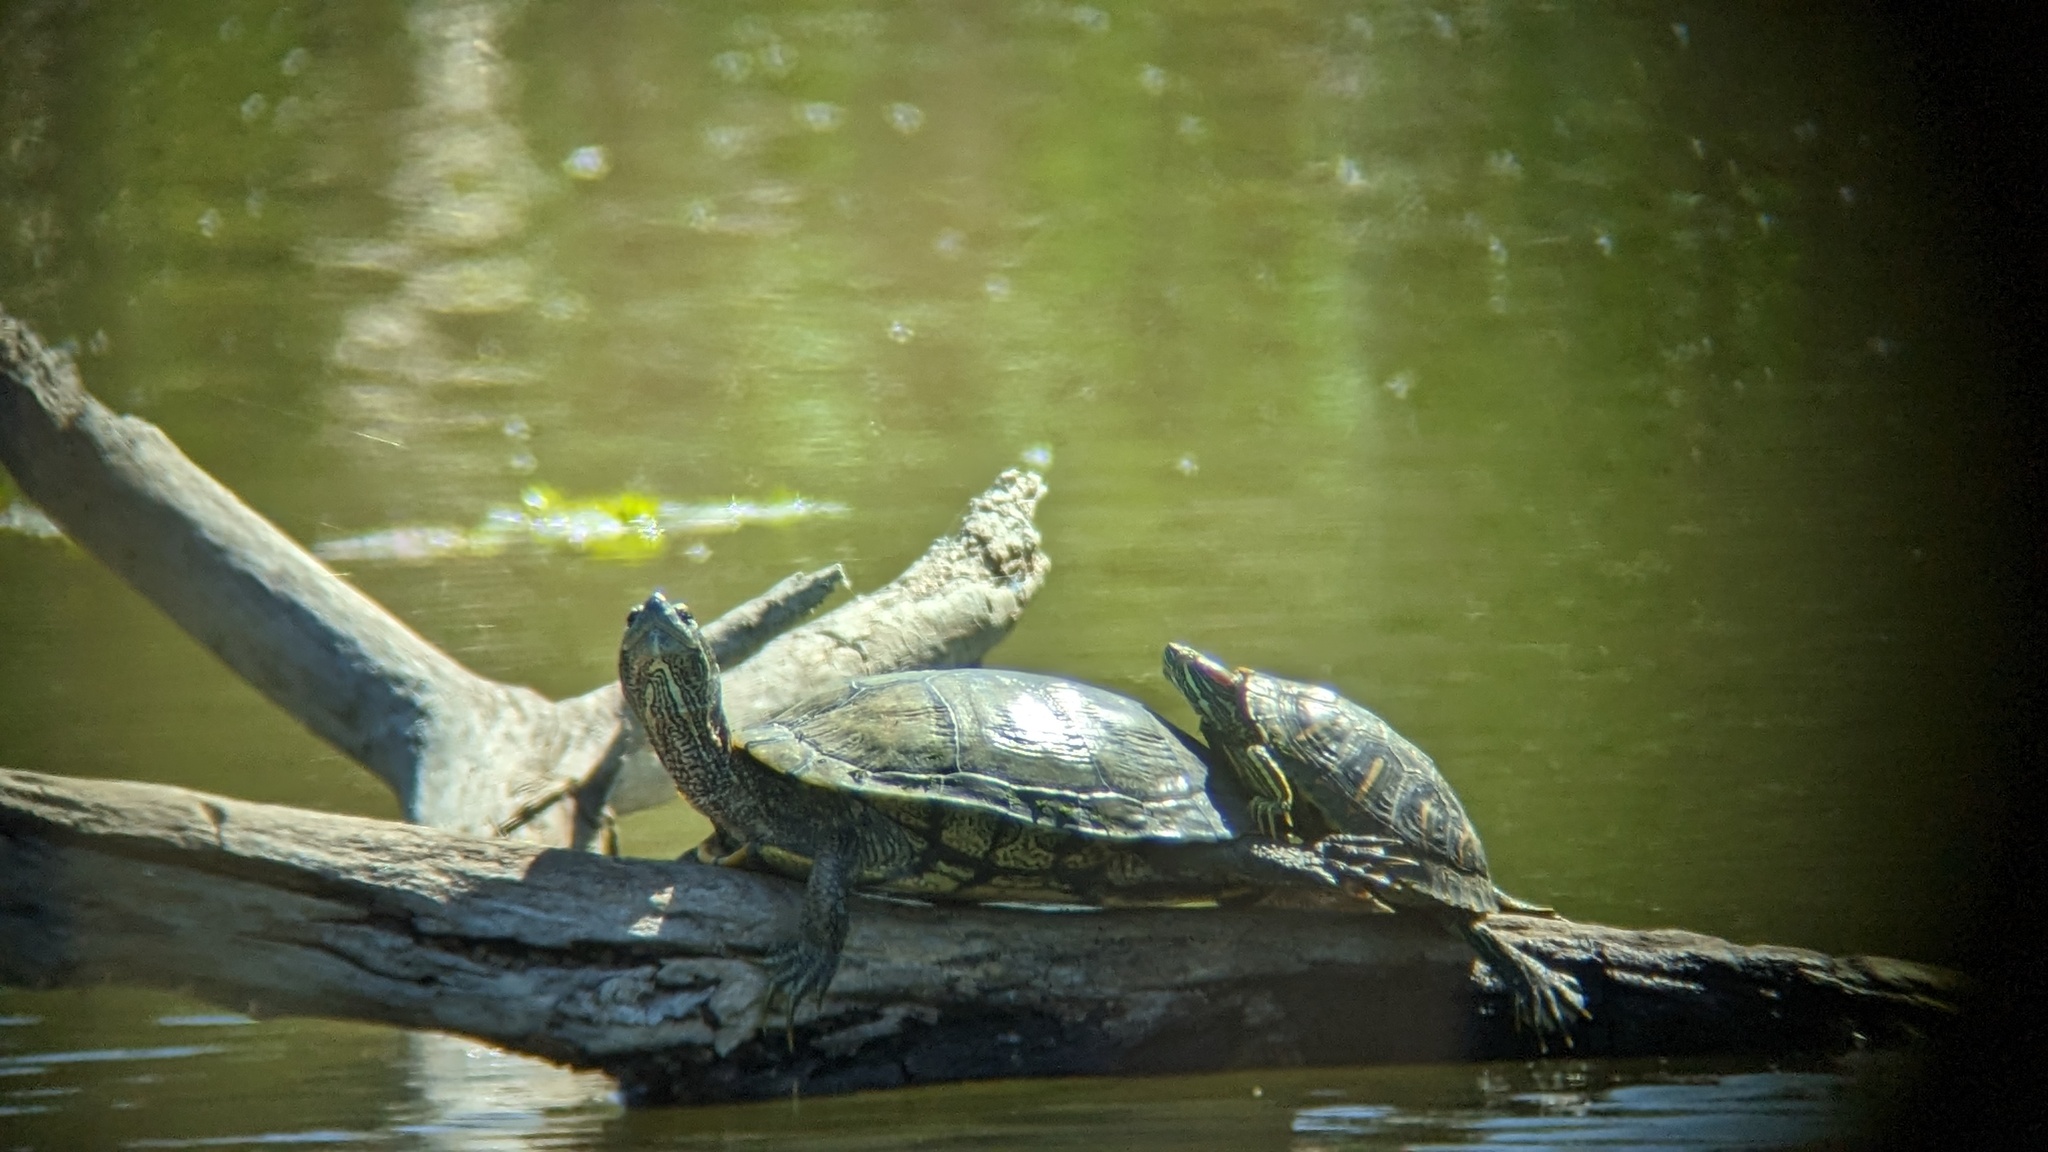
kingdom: Animalia
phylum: Chordata
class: Testudines
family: Emydidae
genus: Trachemys
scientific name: Trachemys scripta
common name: Slider
